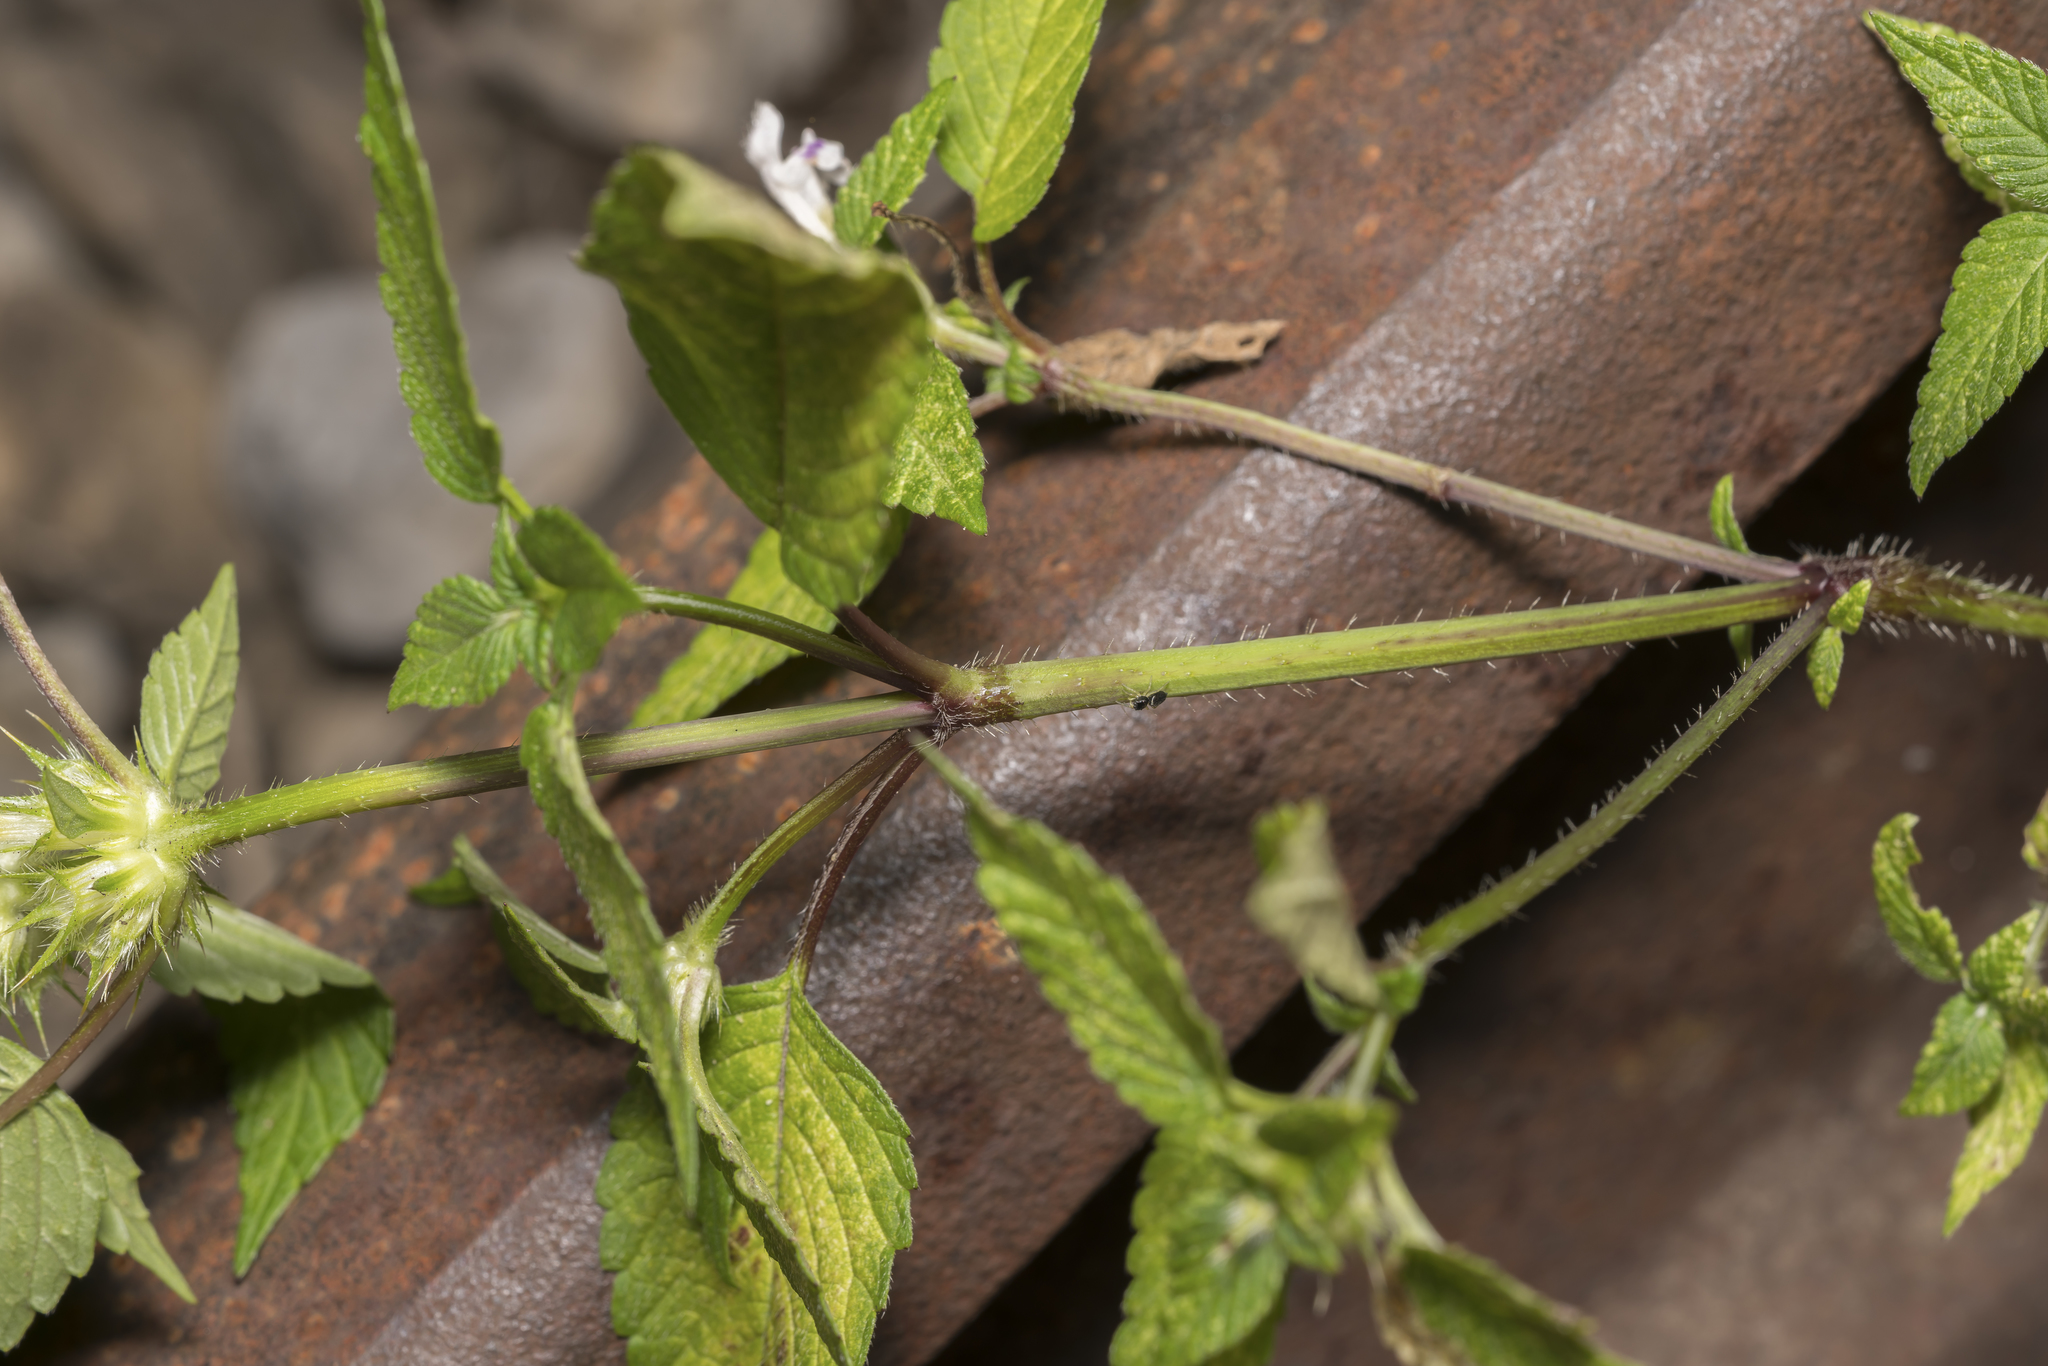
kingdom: Plantae
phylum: Tracheophyta
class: Magnoliopsida
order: Lamiales
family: Lamiaceae
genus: Galeopsis
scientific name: Galeopsis tetrahit
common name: Common hemp-nettle
